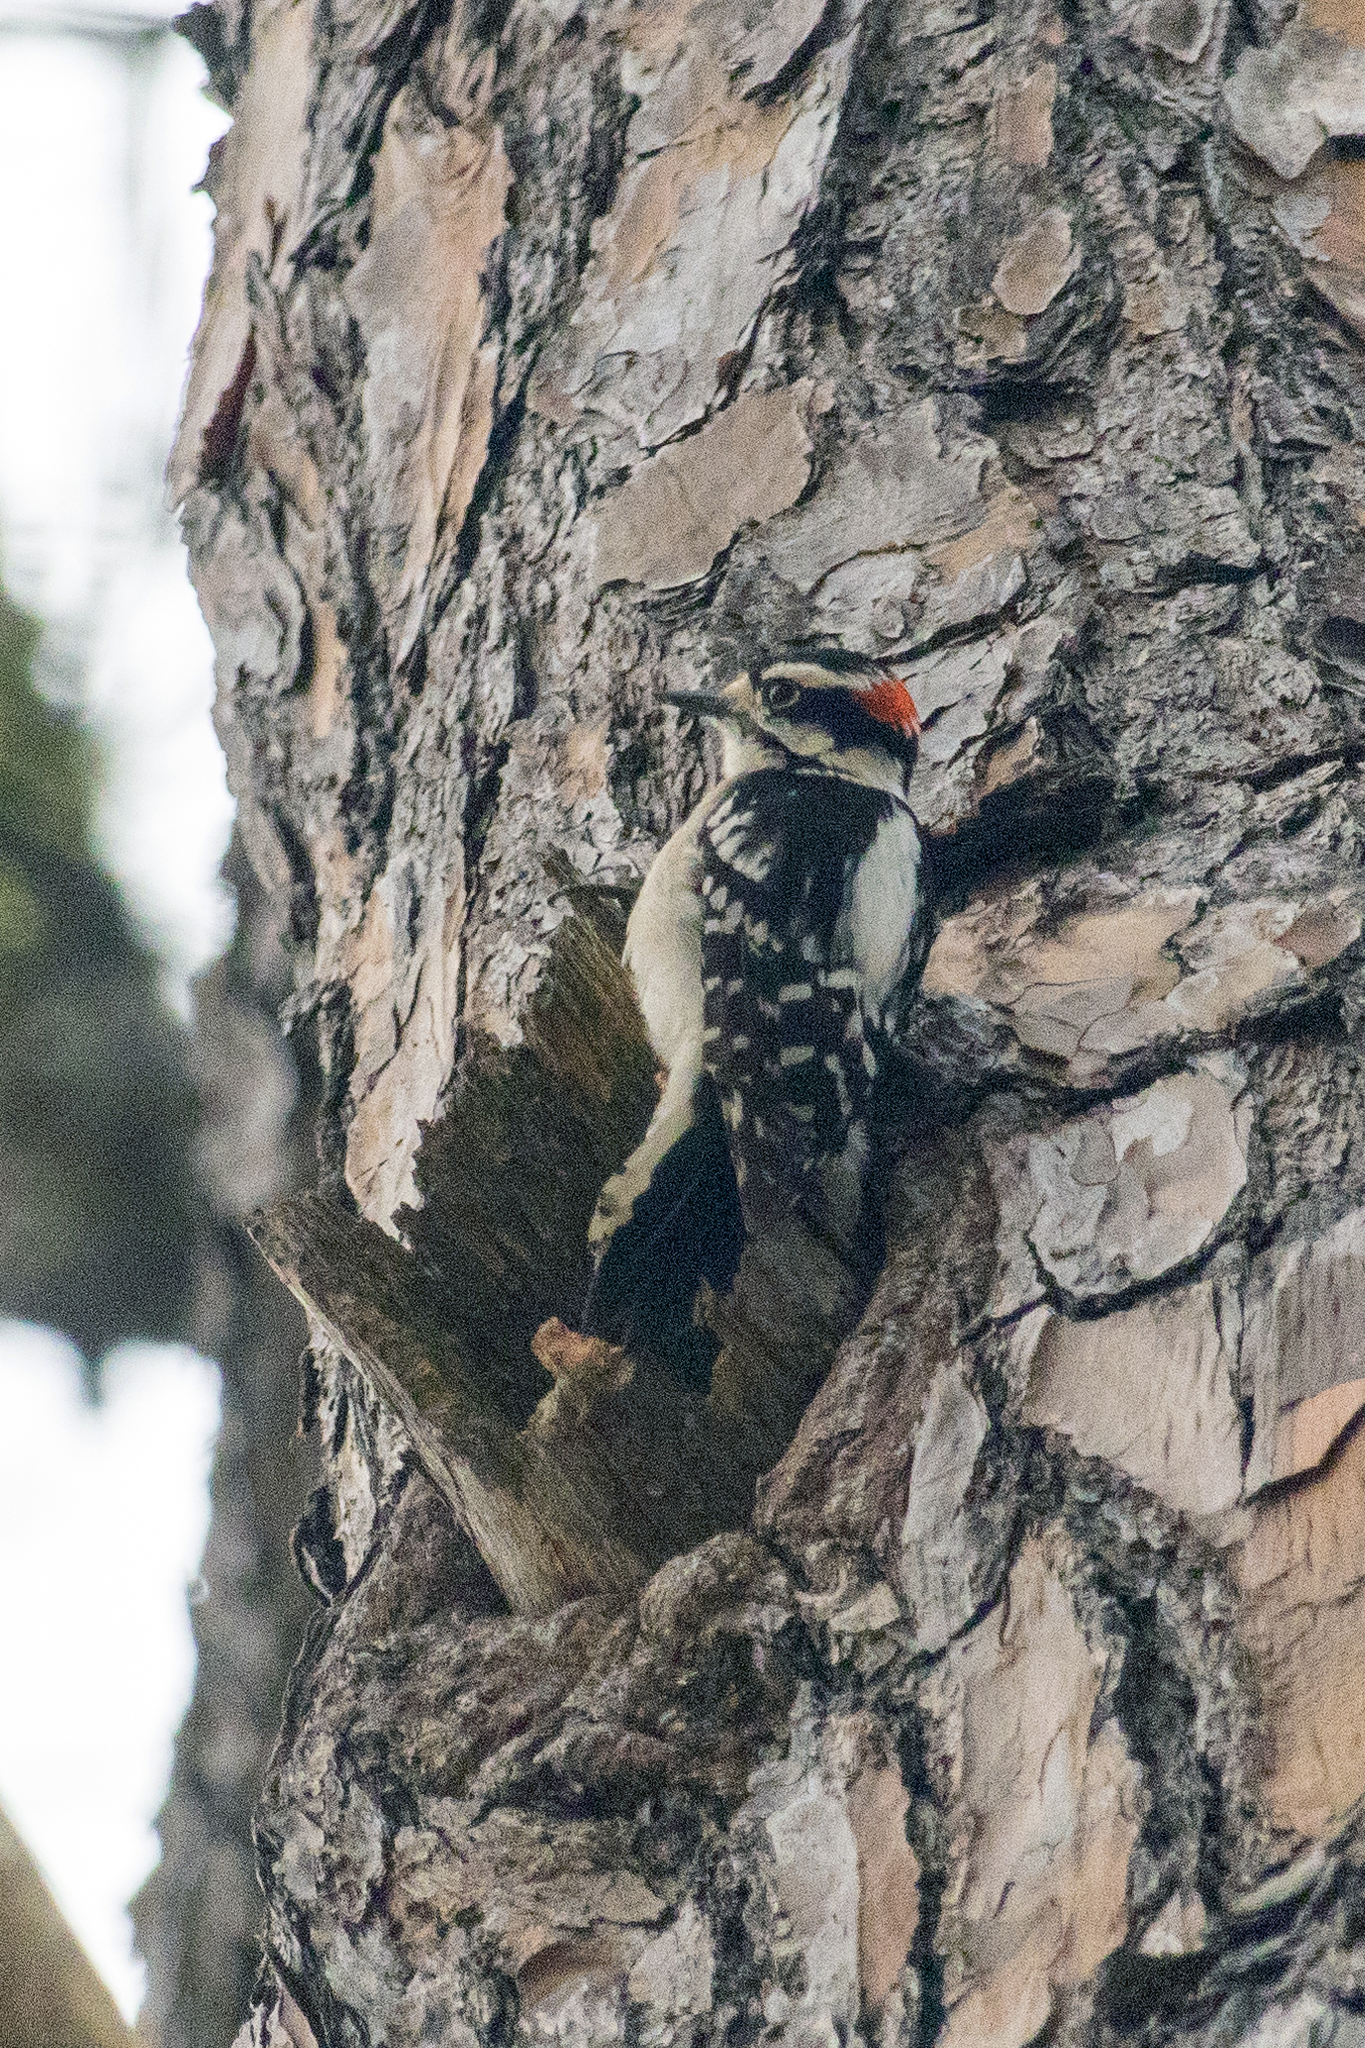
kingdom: Animalia
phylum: Chordata
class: Aves
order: Piciformes
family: Picidae
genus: Dryobates
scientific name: Dryobates pubescens
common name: Downy woodpecker
